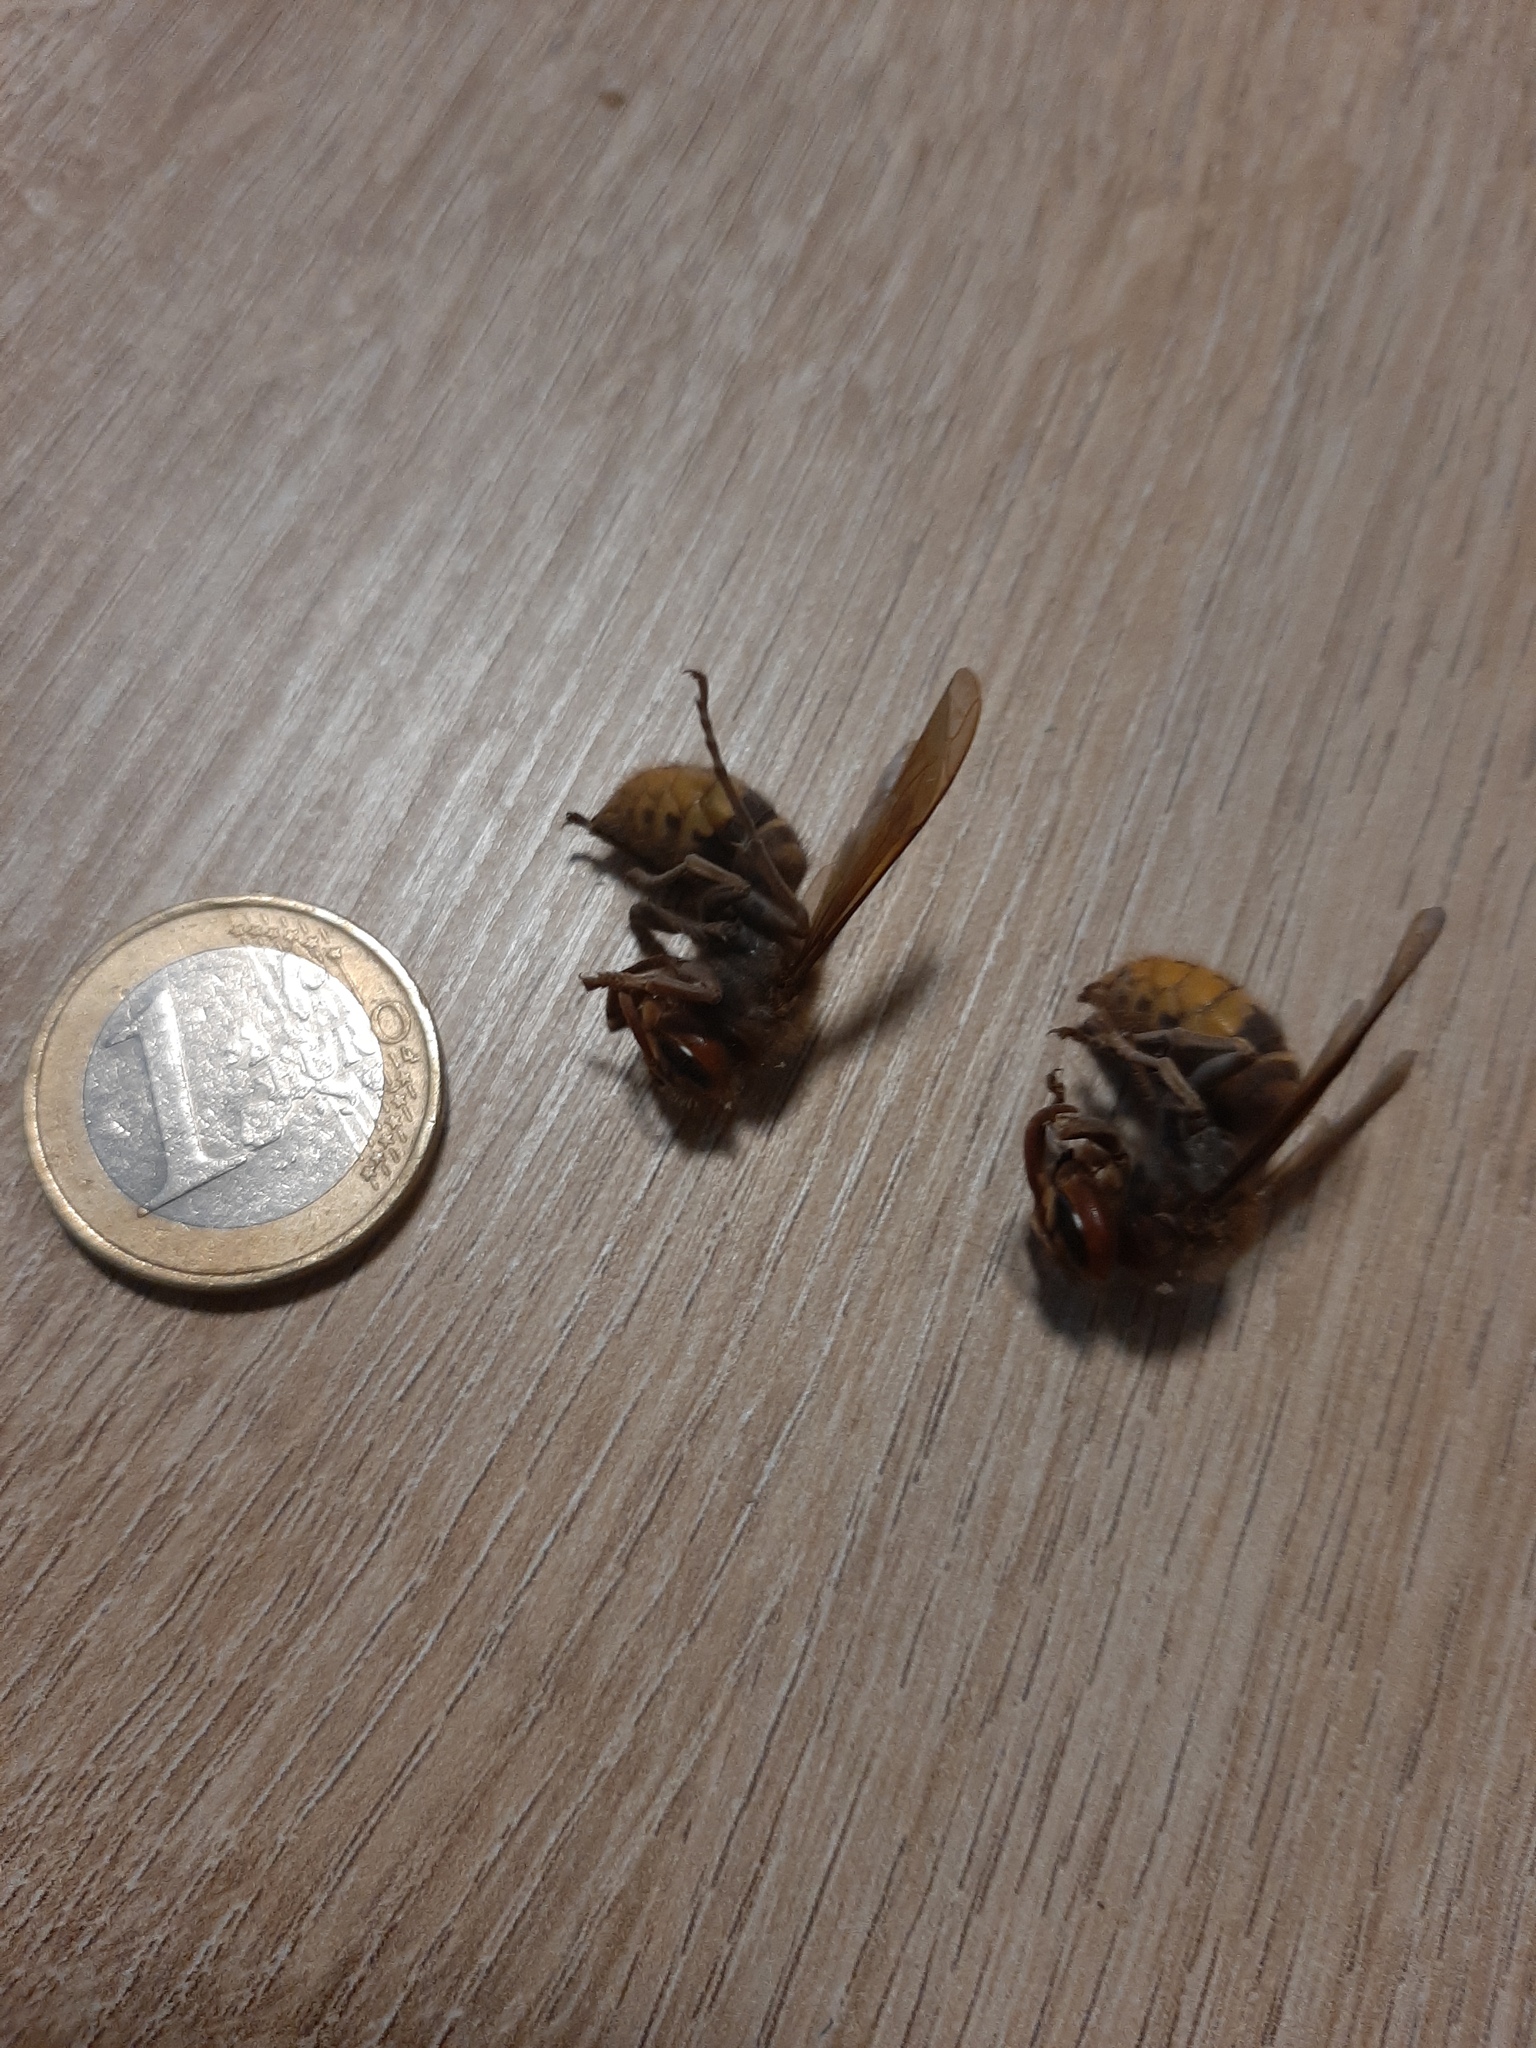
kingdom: Animalia
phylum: Arthropoda
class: Insecta
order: Hymenoptera
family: Vespidae
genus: Vespa
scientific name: Vespa crabro
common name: Hornet
